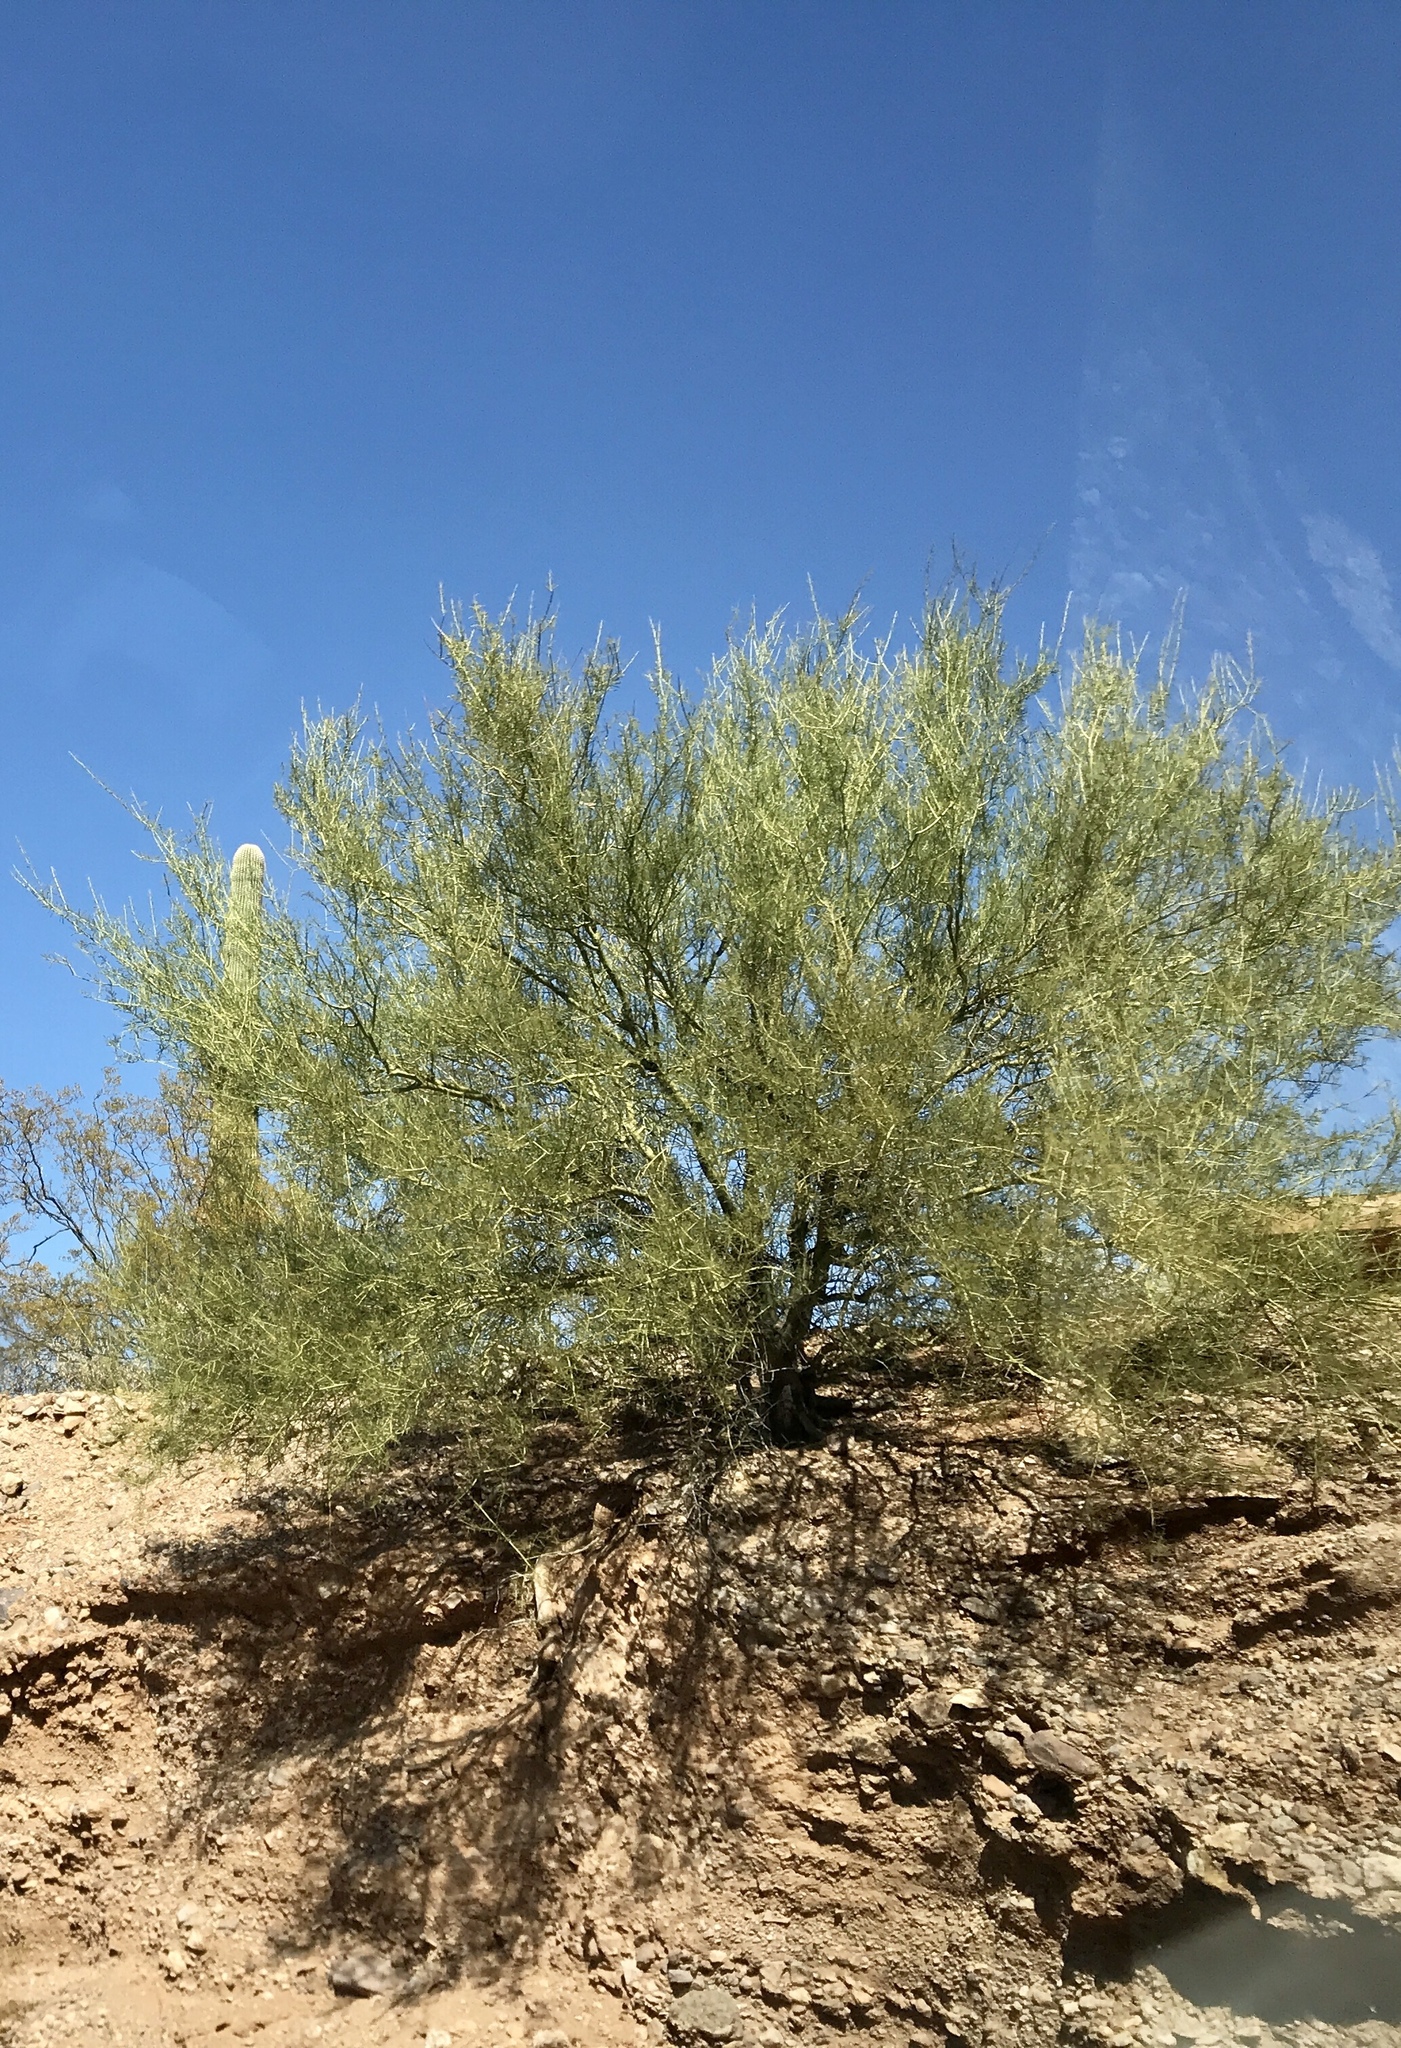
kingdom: Plantae
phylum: Tracheophyta
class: Magnoliopsida
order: Fabales
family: Fabaceae
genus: Parkinsonia
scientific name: Parkinsonia florida
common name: Blue paloverde
